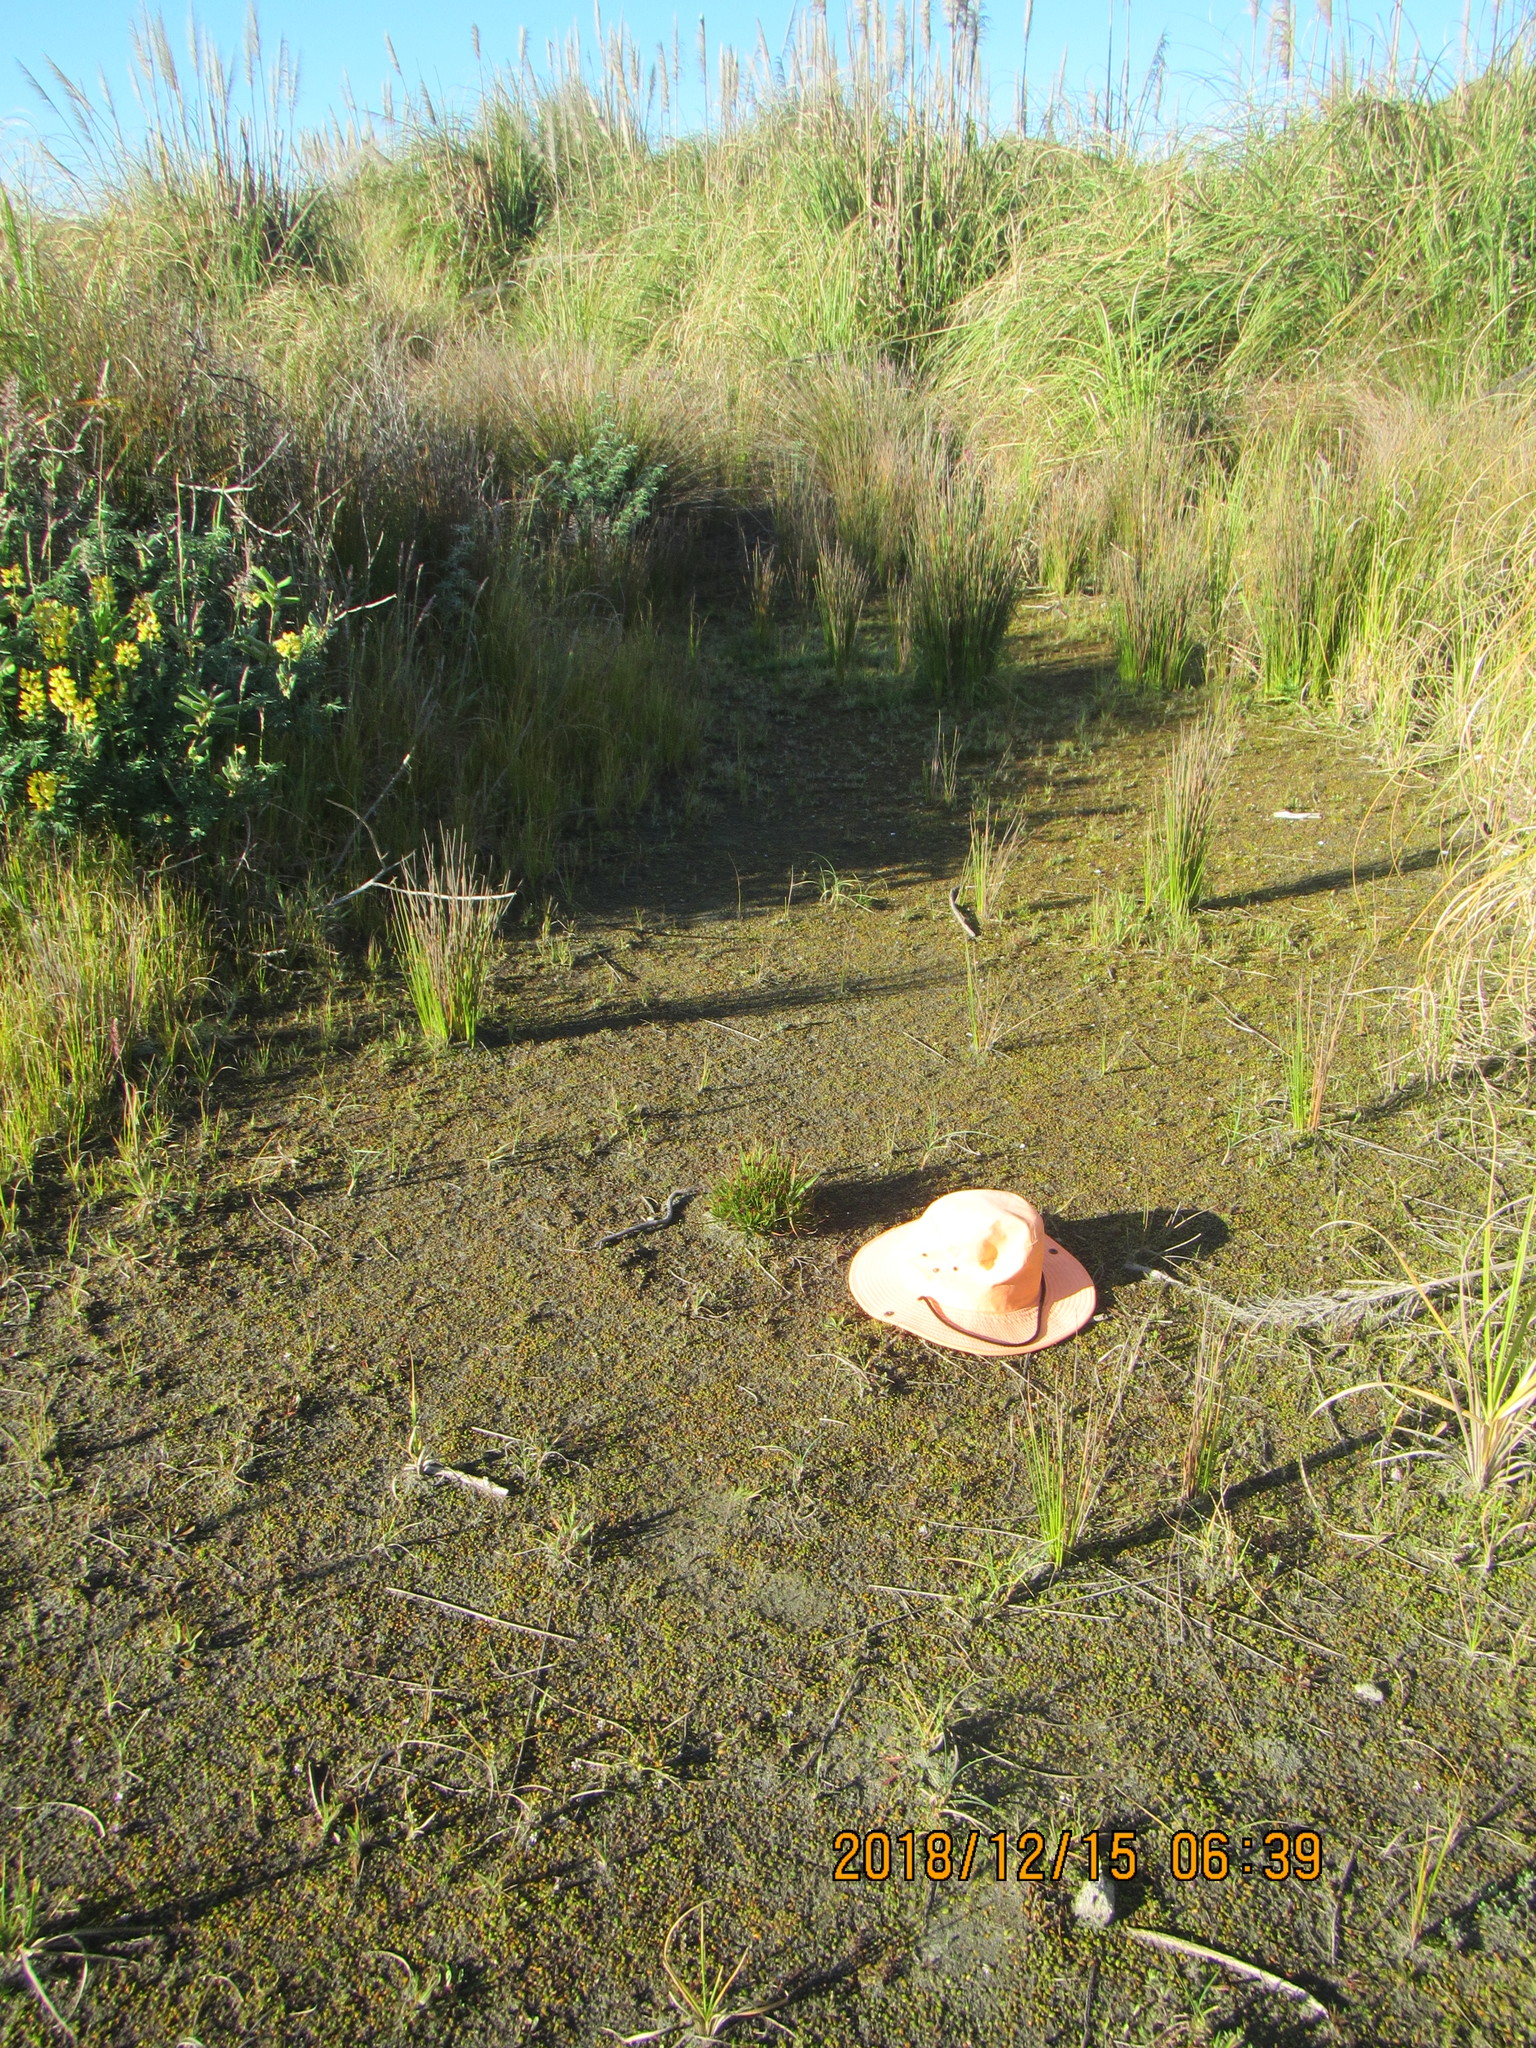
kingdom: Plantae
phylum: Tracheophyta
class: Liliopsida
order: Poales
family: Juncaceae
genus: Juncus
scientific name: Juncus caespiticius
